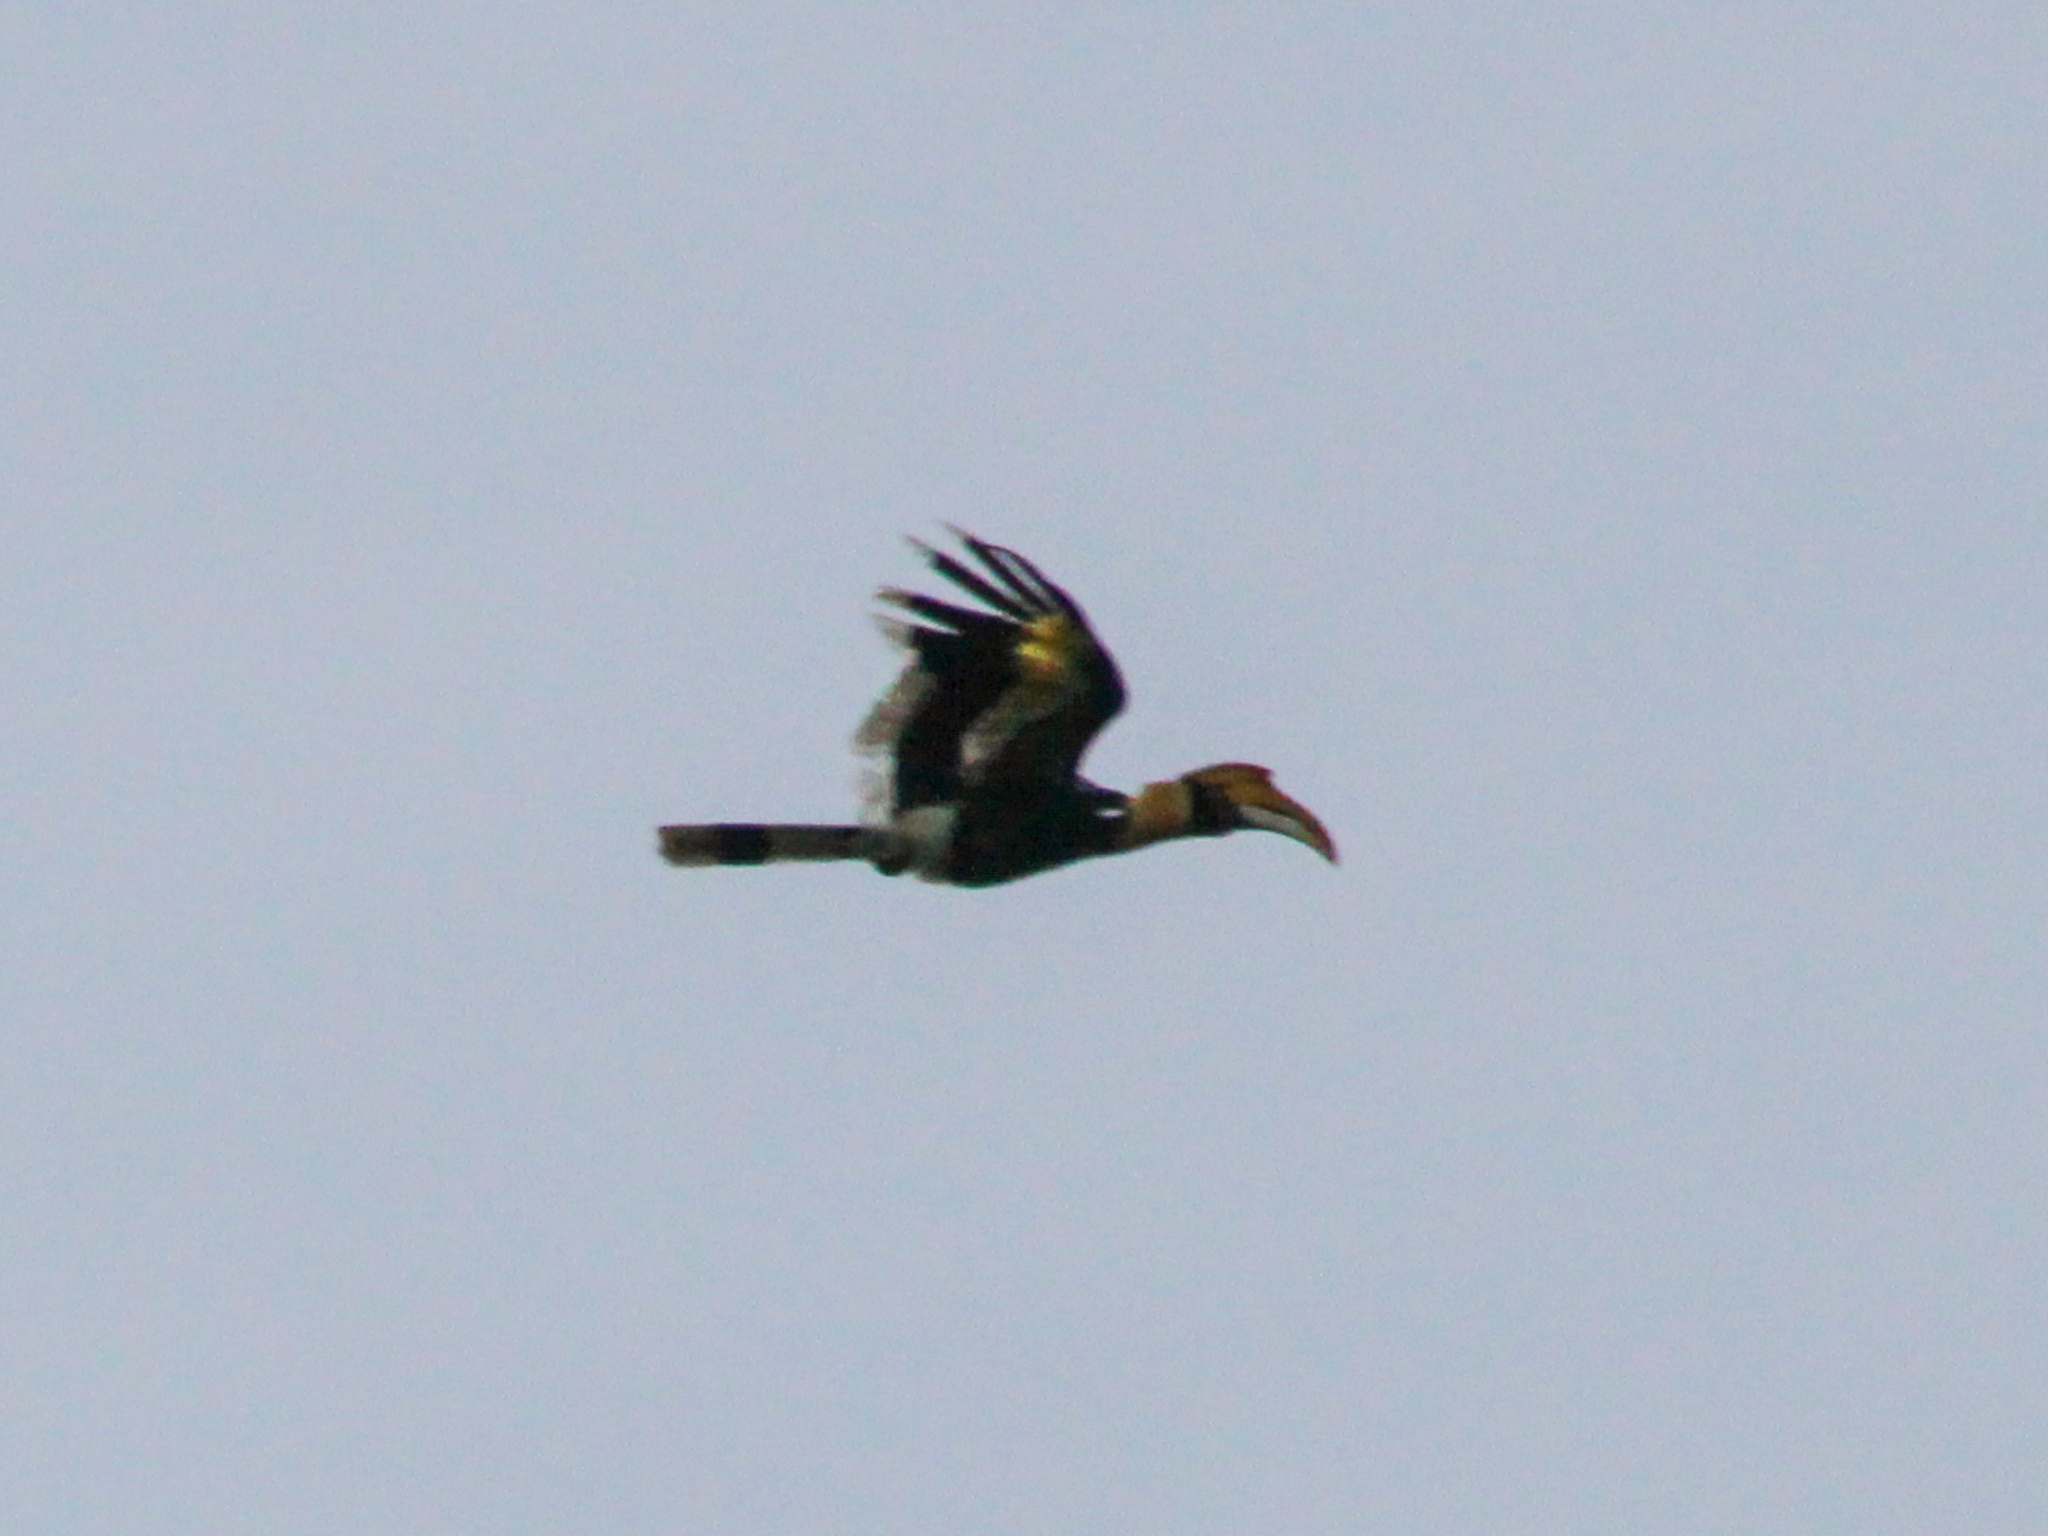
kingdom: Animalia
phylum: Chordata
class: Aves
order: Bucerotiformes
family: Bucerotidae
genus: Buceros
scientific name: Buceros bicornis
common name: Great hornbill
